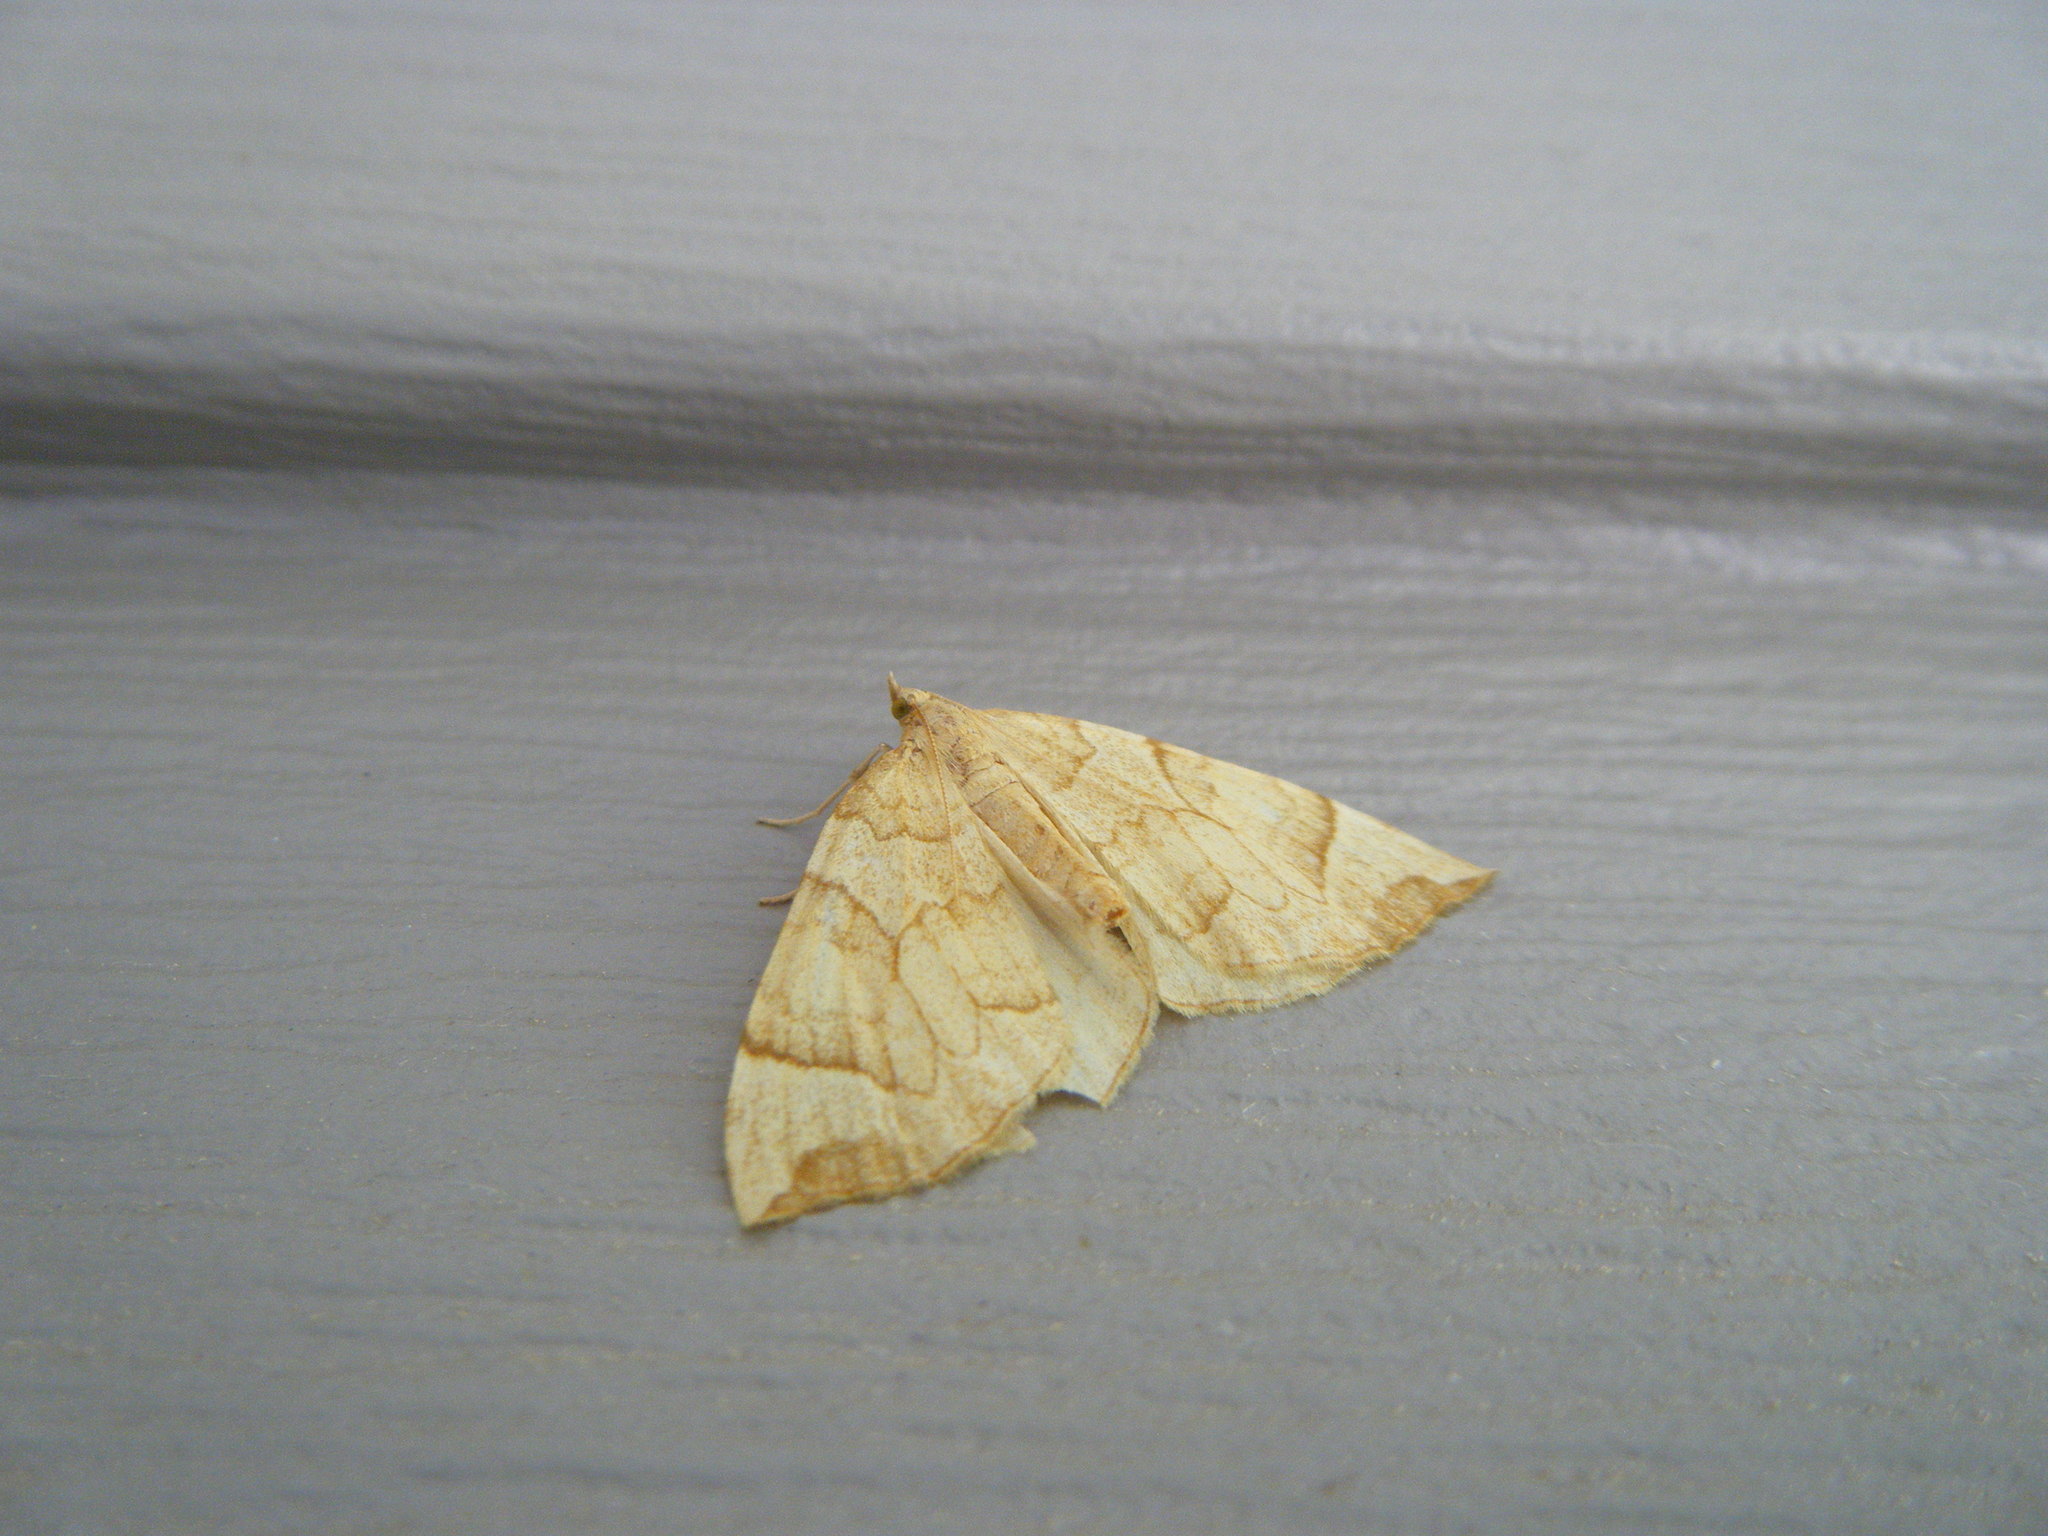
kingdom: Animalia
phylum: Arthropoda
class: Insecta
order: Lepidoptera
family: Geometridae
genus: Eulithis
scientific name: Eulithis propulsata
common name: Currant eulithis moth
